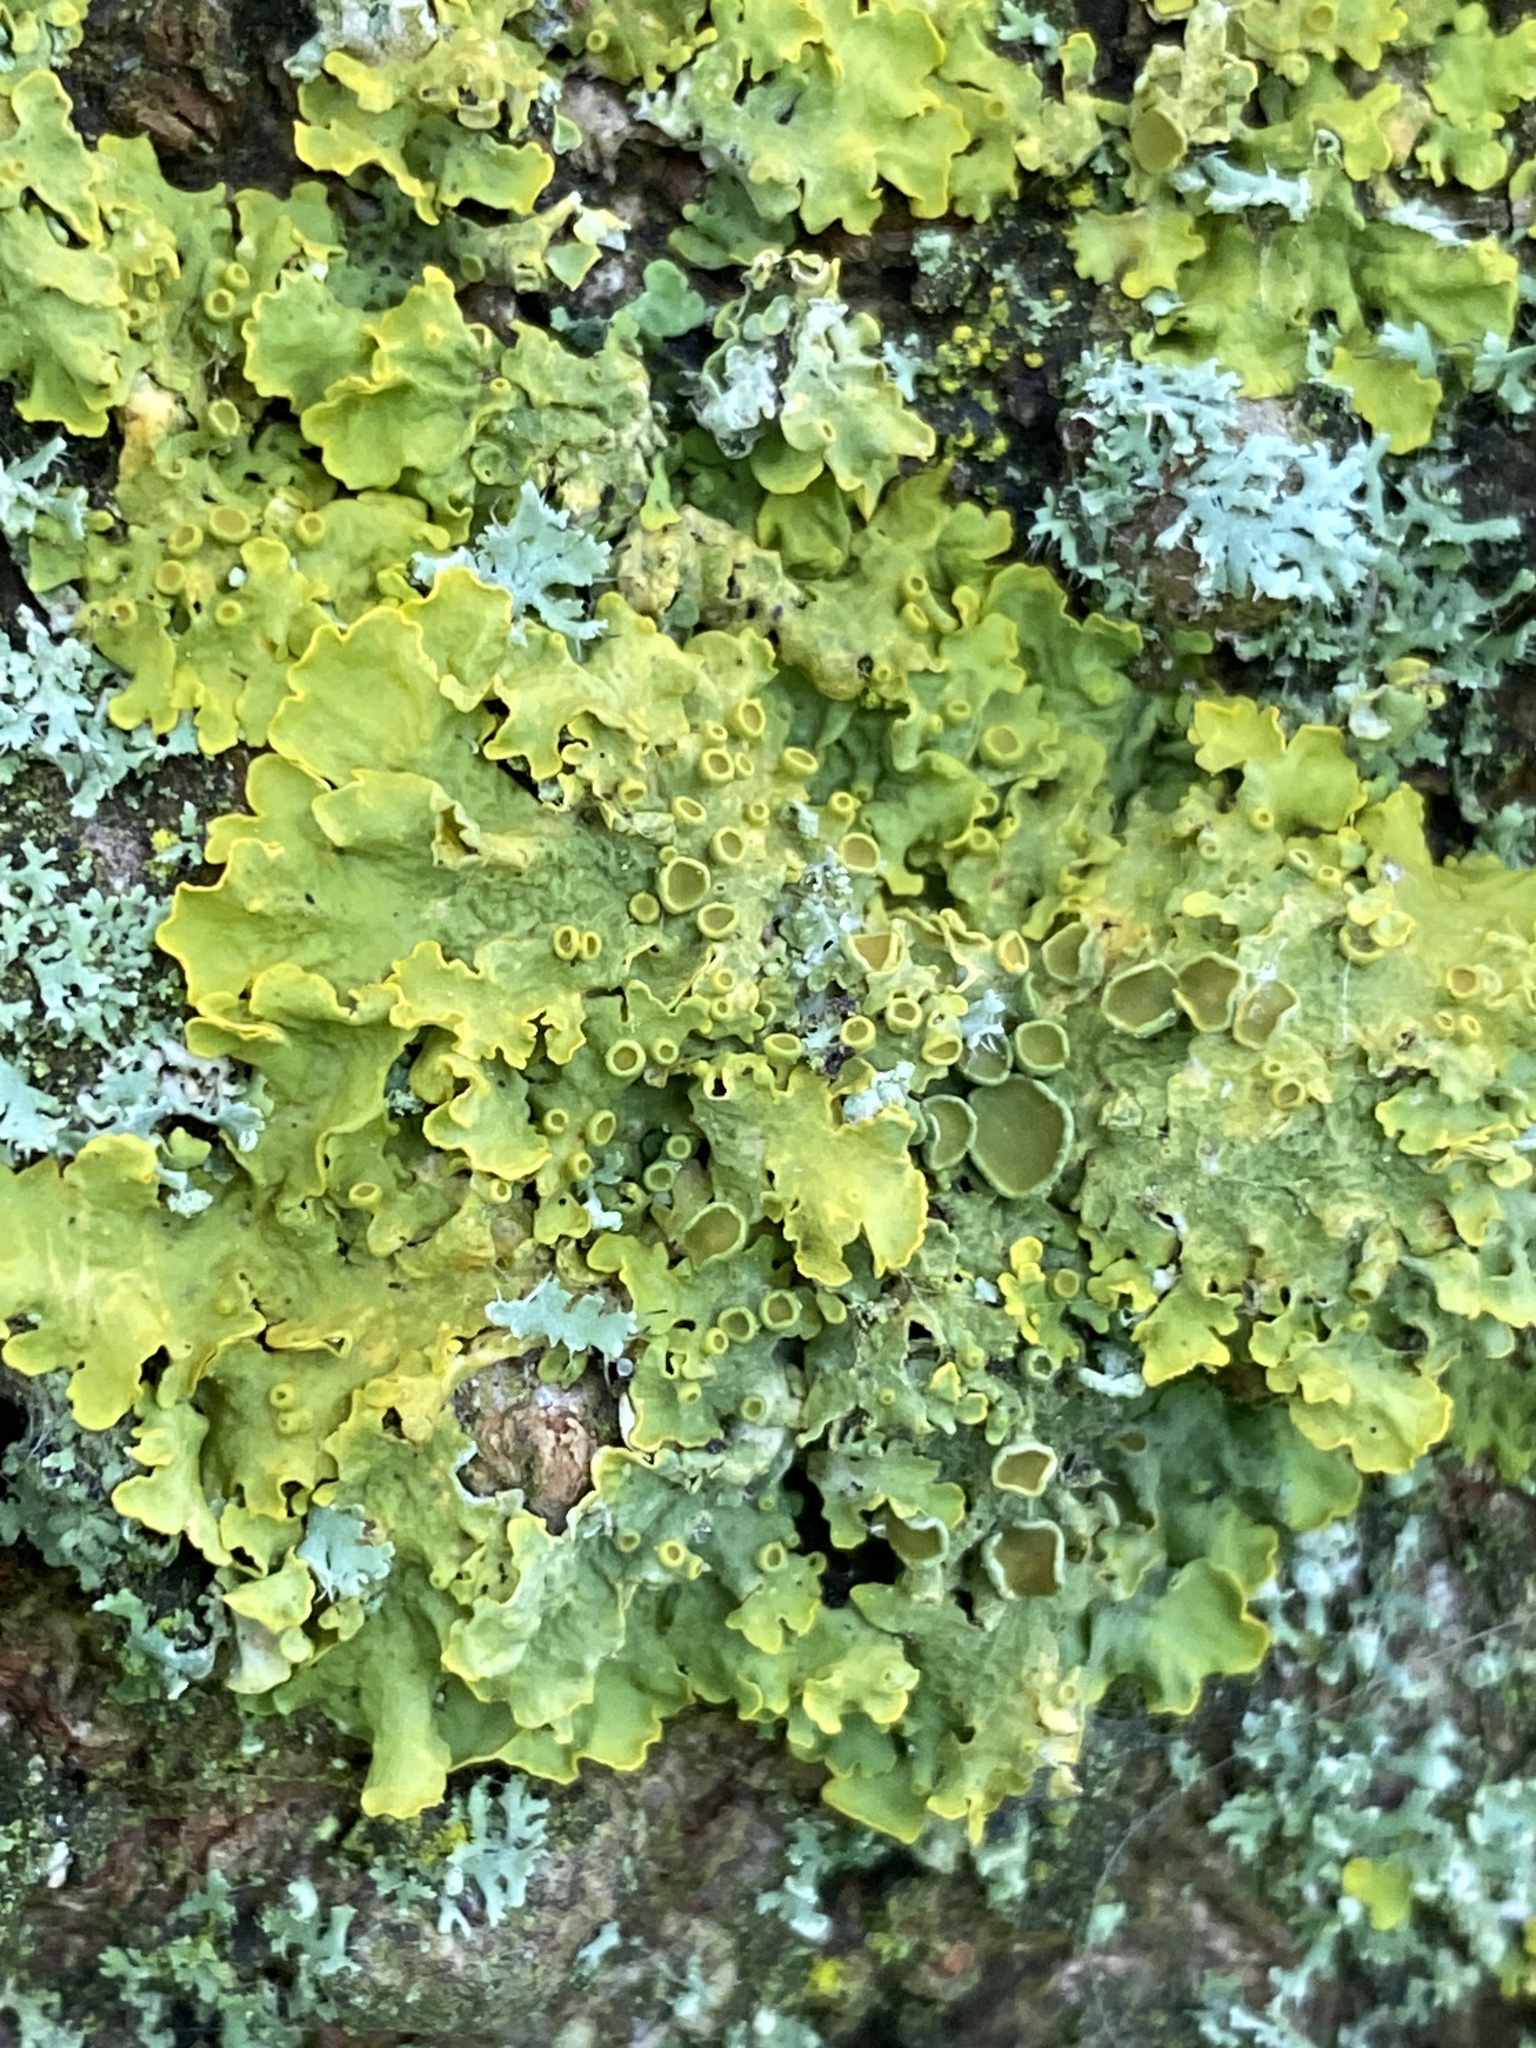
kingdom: Fungi
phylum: Ascomycota
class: Lecanoromycetes
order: Teloschistales
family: Teloschistaceae
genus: Xanthoria
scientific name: Xanthoria parietina
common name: Common orange lichen
